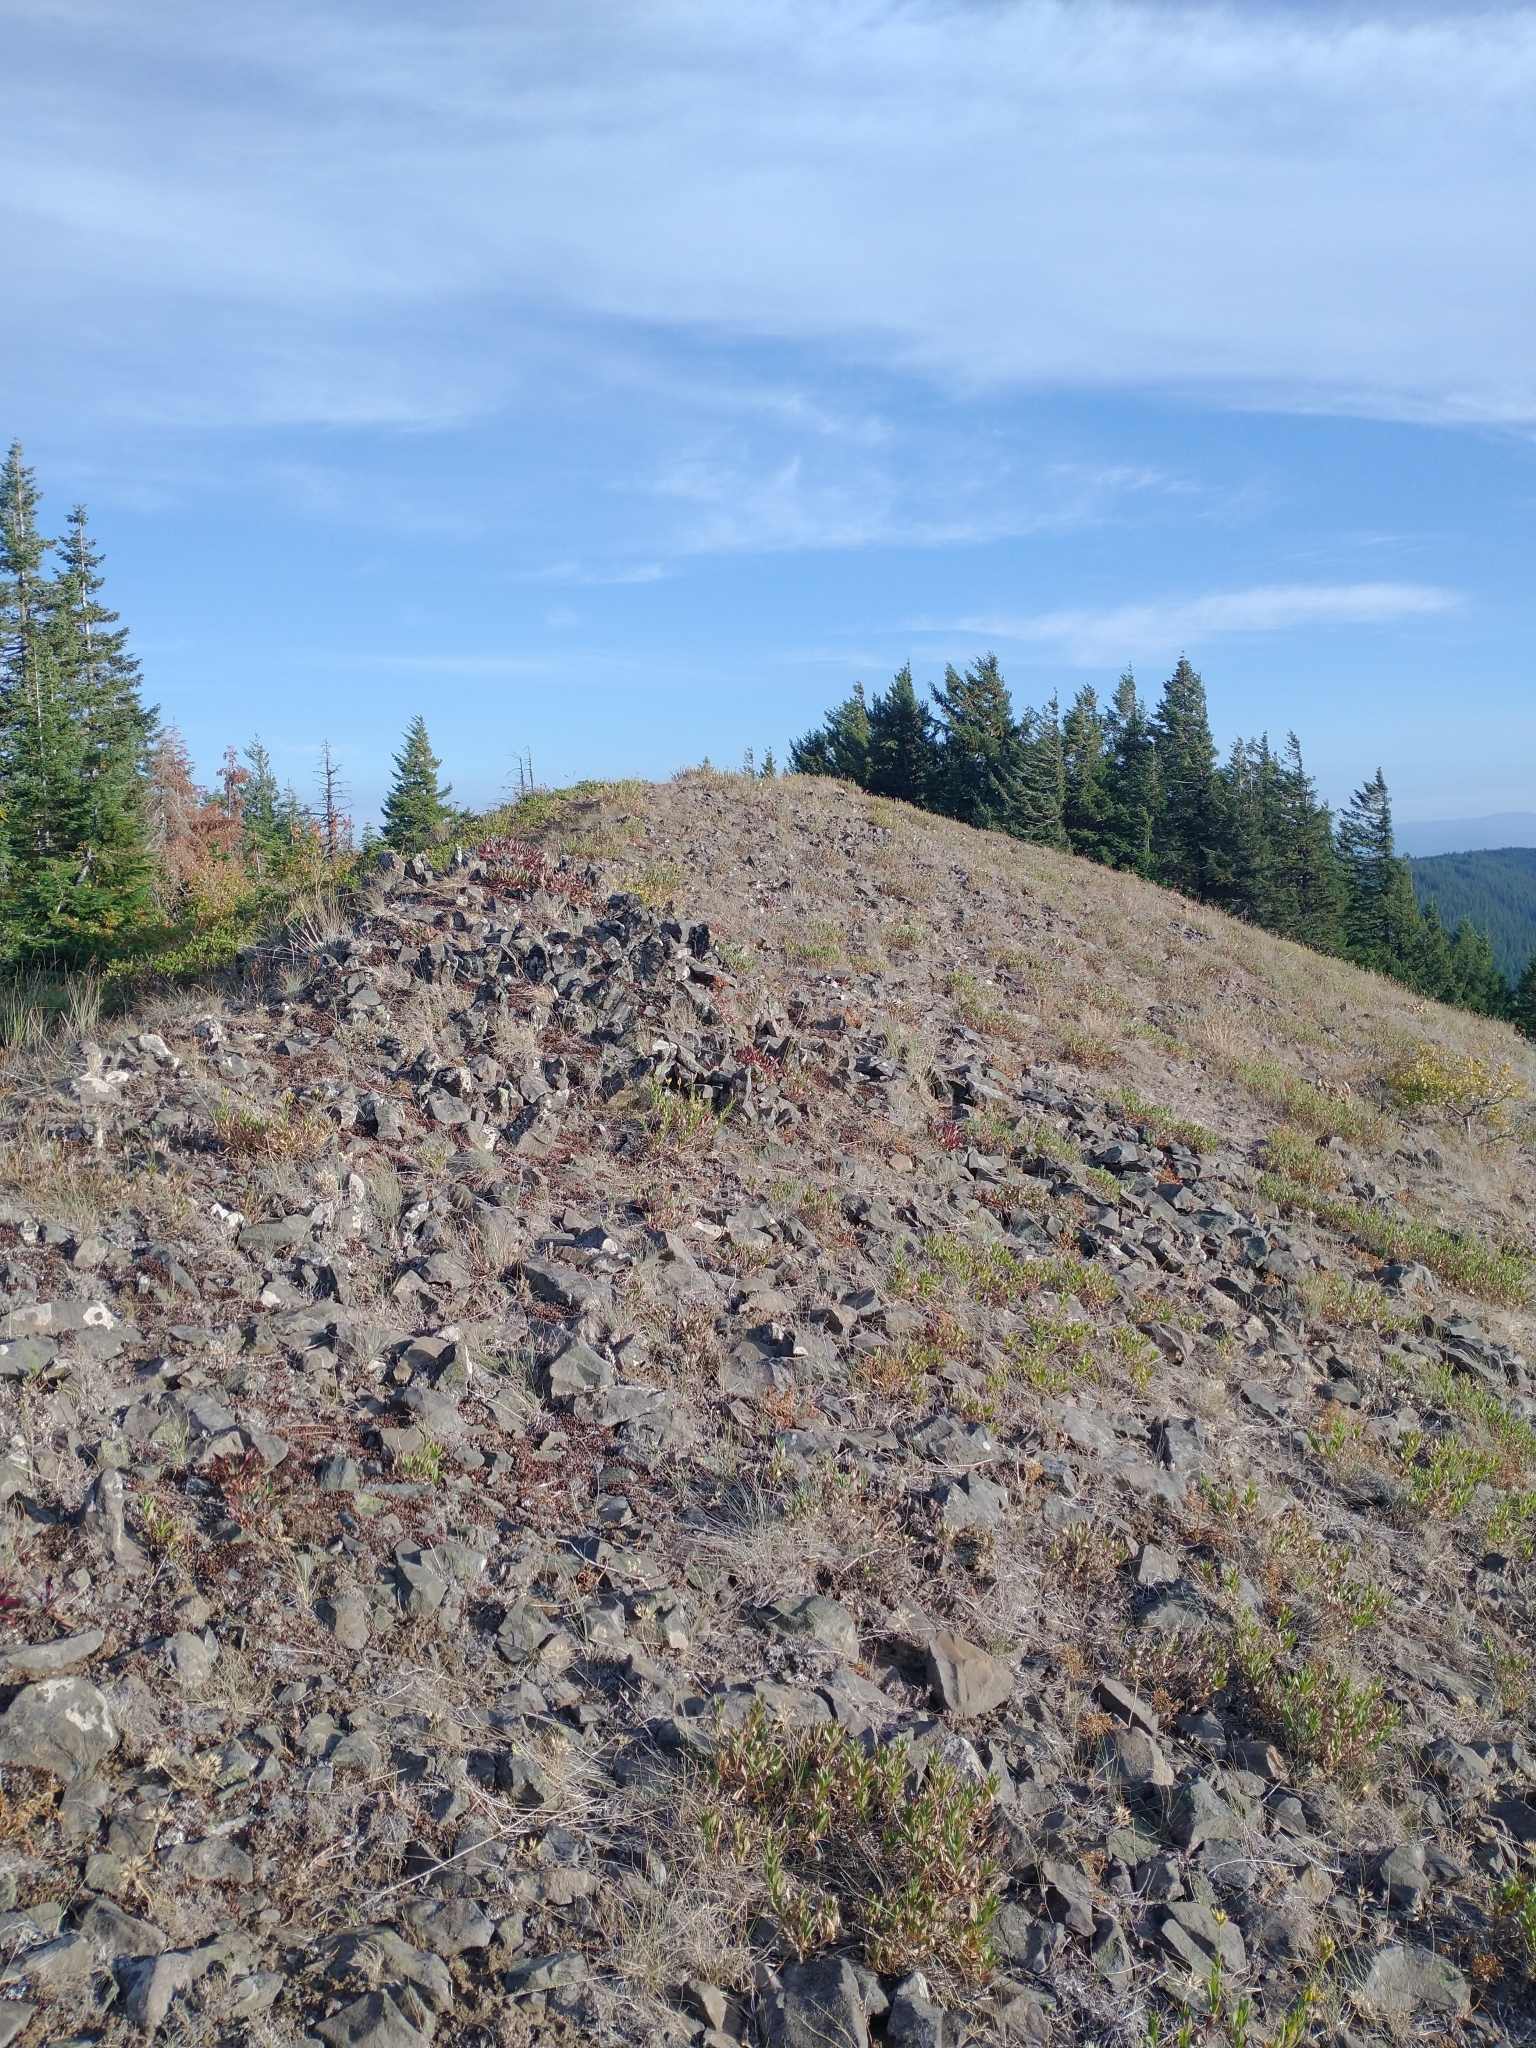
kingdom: Plantae
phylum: Tracheophyta
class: Pinopsida
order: Pinales
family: Pinaceae
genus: Pseudotsuga
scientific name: Pseudotsuga menziesii
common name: Douglas fir
